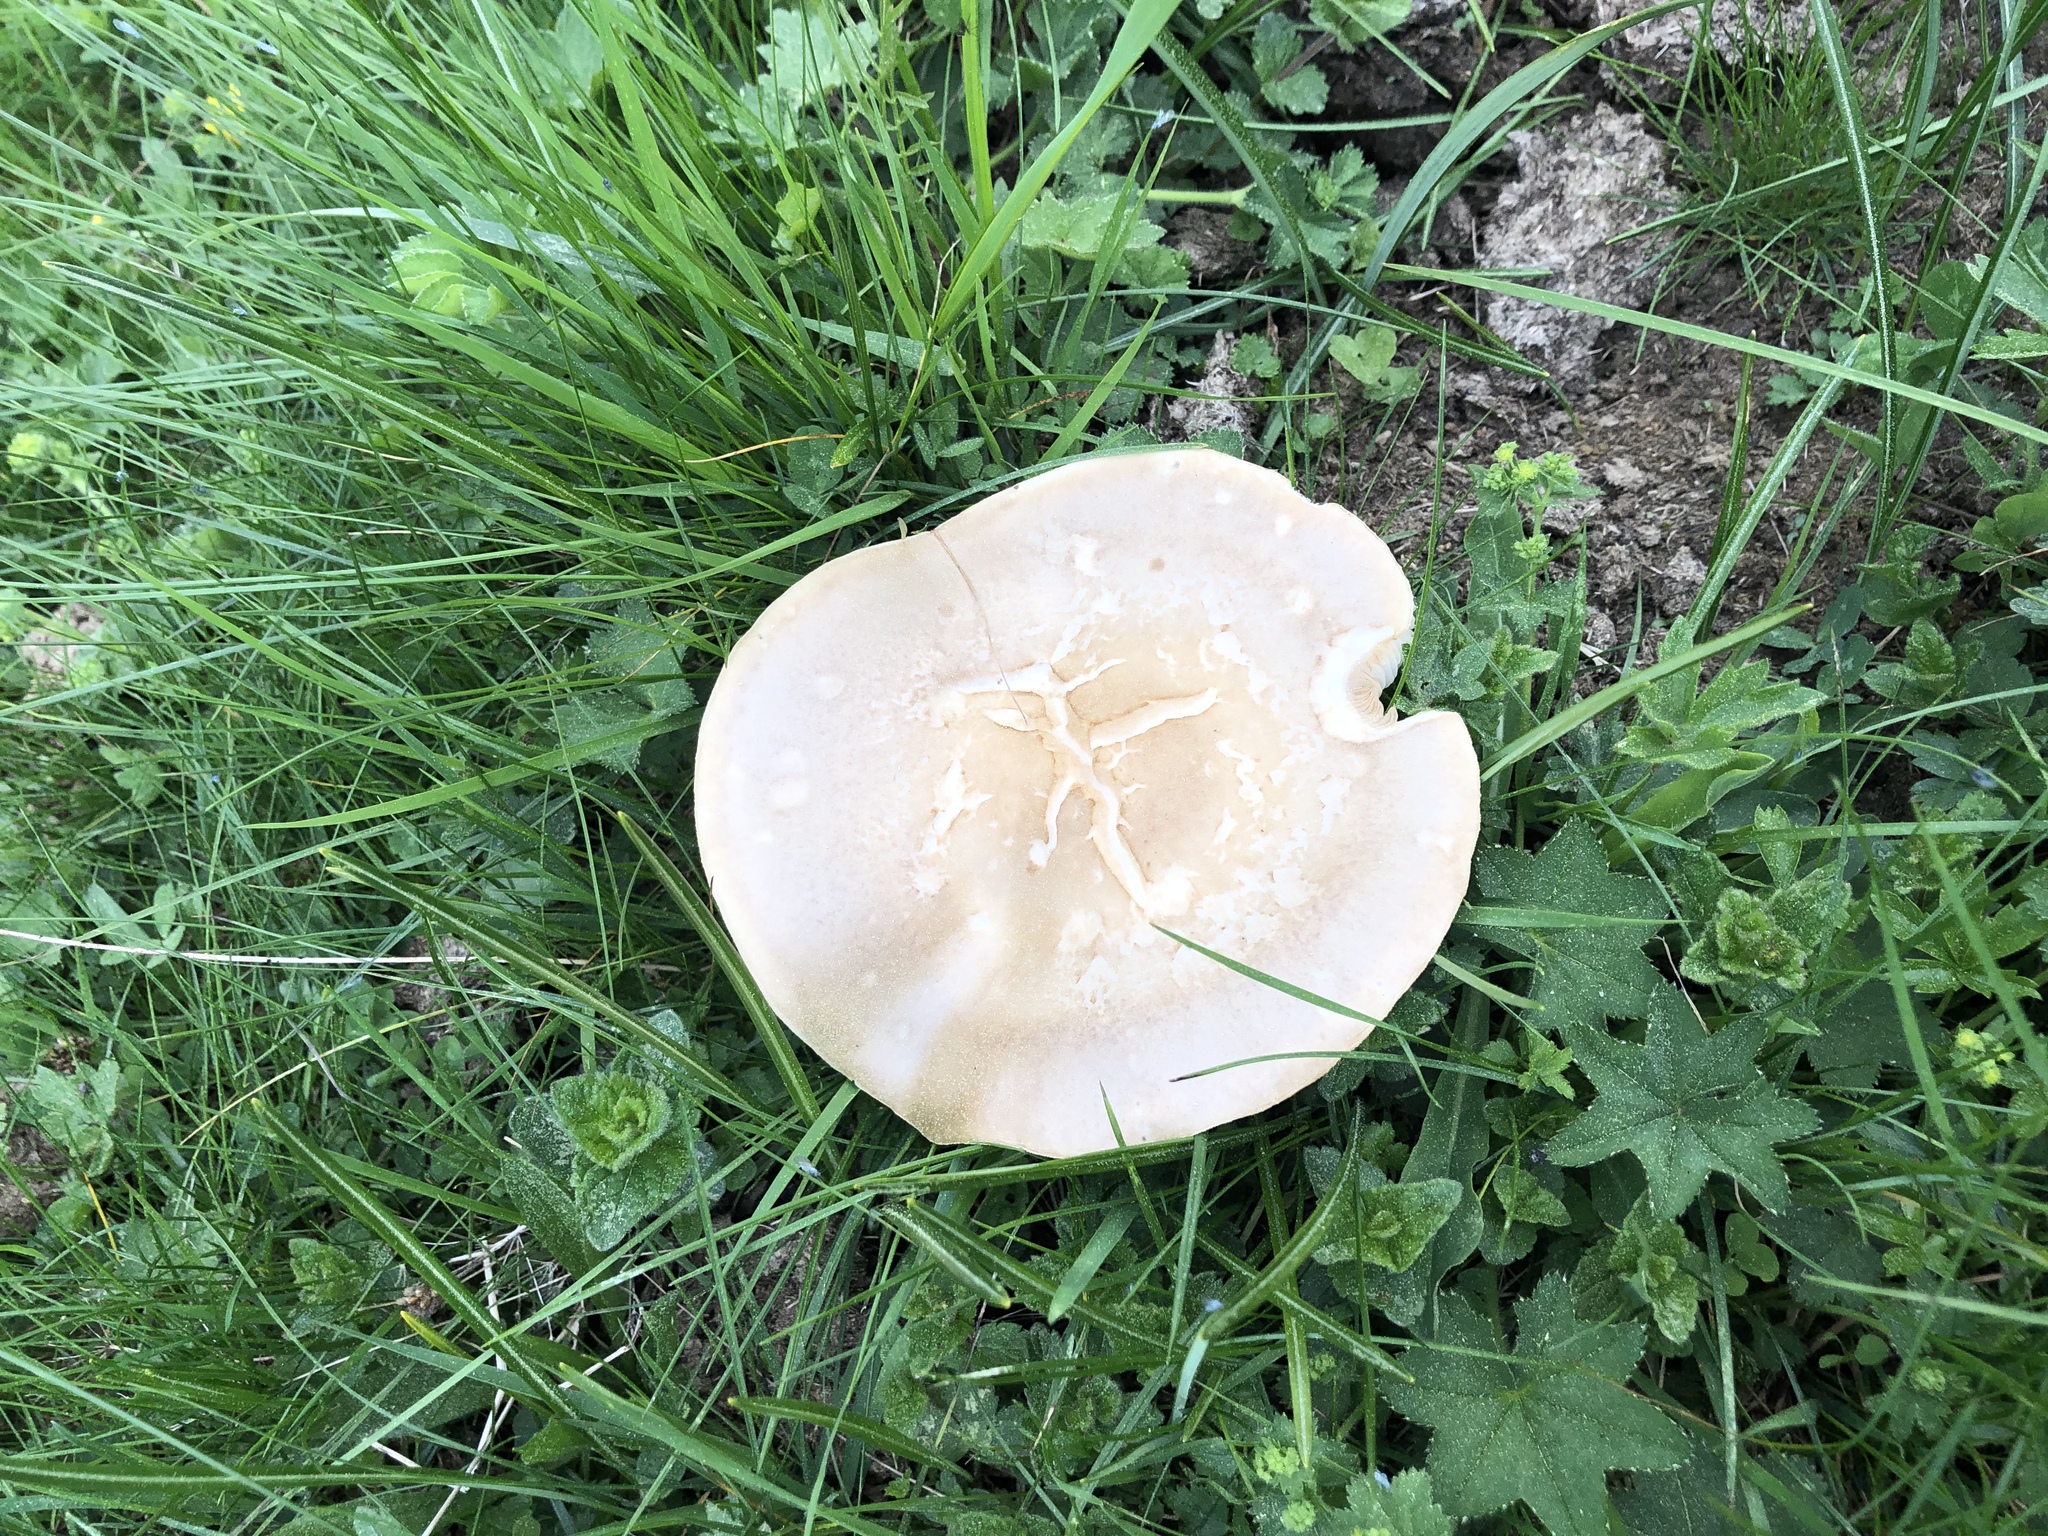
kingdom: Fungi
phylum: Basidiomycota
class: Agaricomycetes
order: Agaricales
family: Lyophyllaceae
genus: Calocybe
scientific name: Calocybe gambosa
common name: St. george's mushroom
